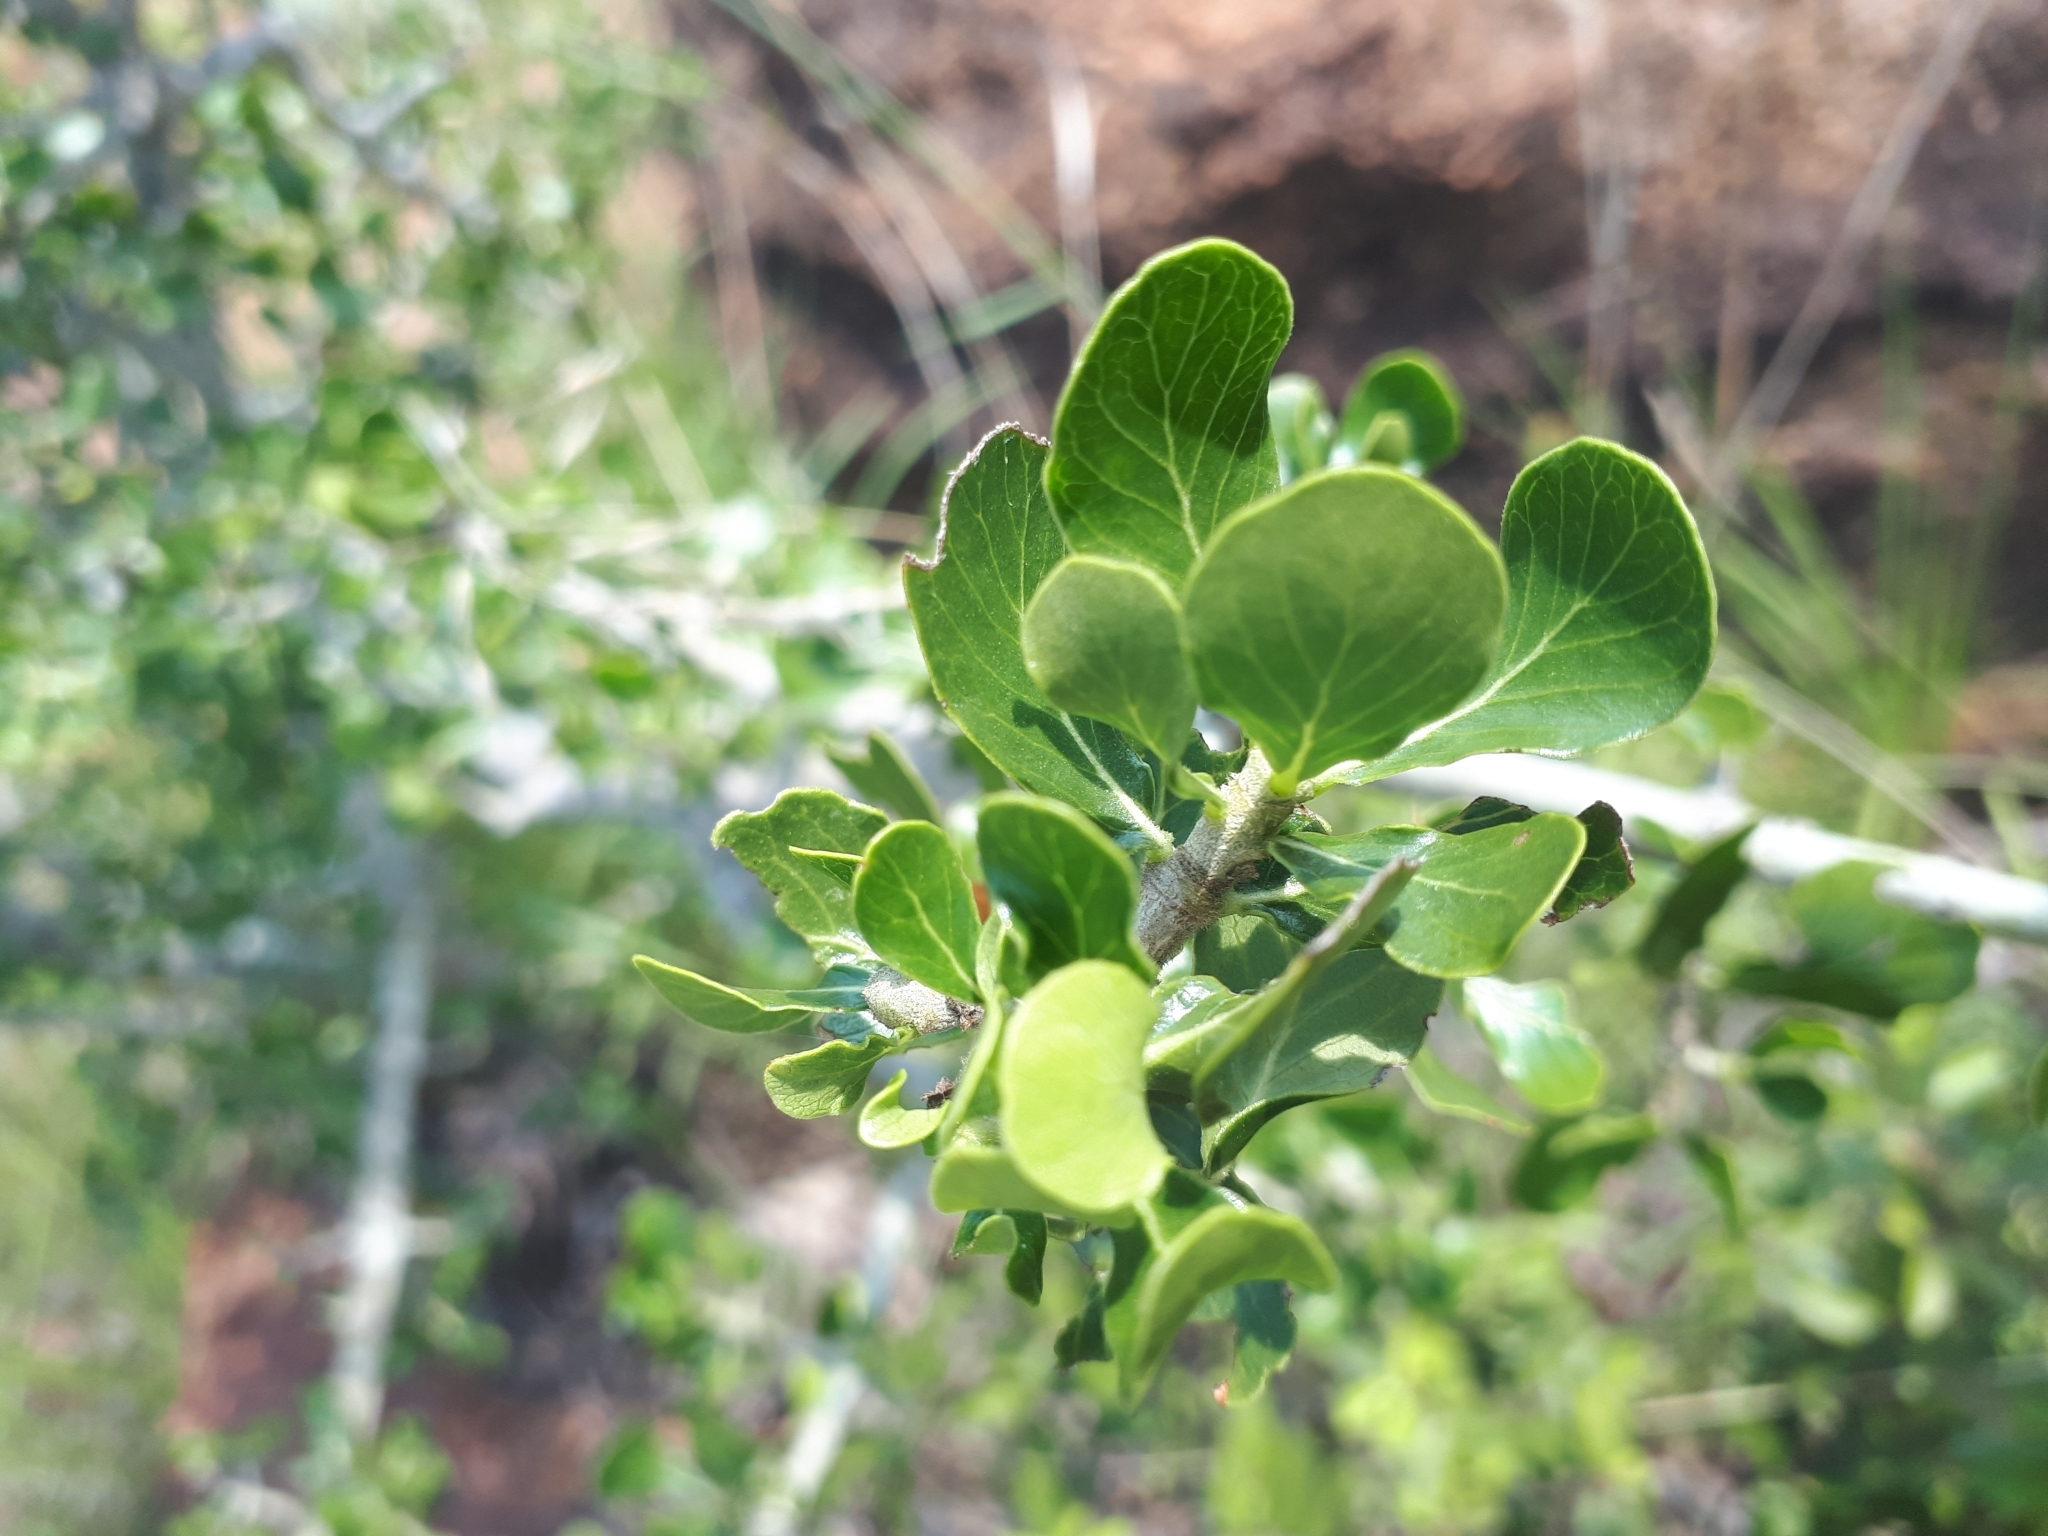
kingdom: Plantae
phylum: Tracheophyta
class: Magnoliopsida
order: Gentianales
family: Rubiaceae
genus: Gardenia
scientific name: Gardenia volkensii
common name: Common gardenia
